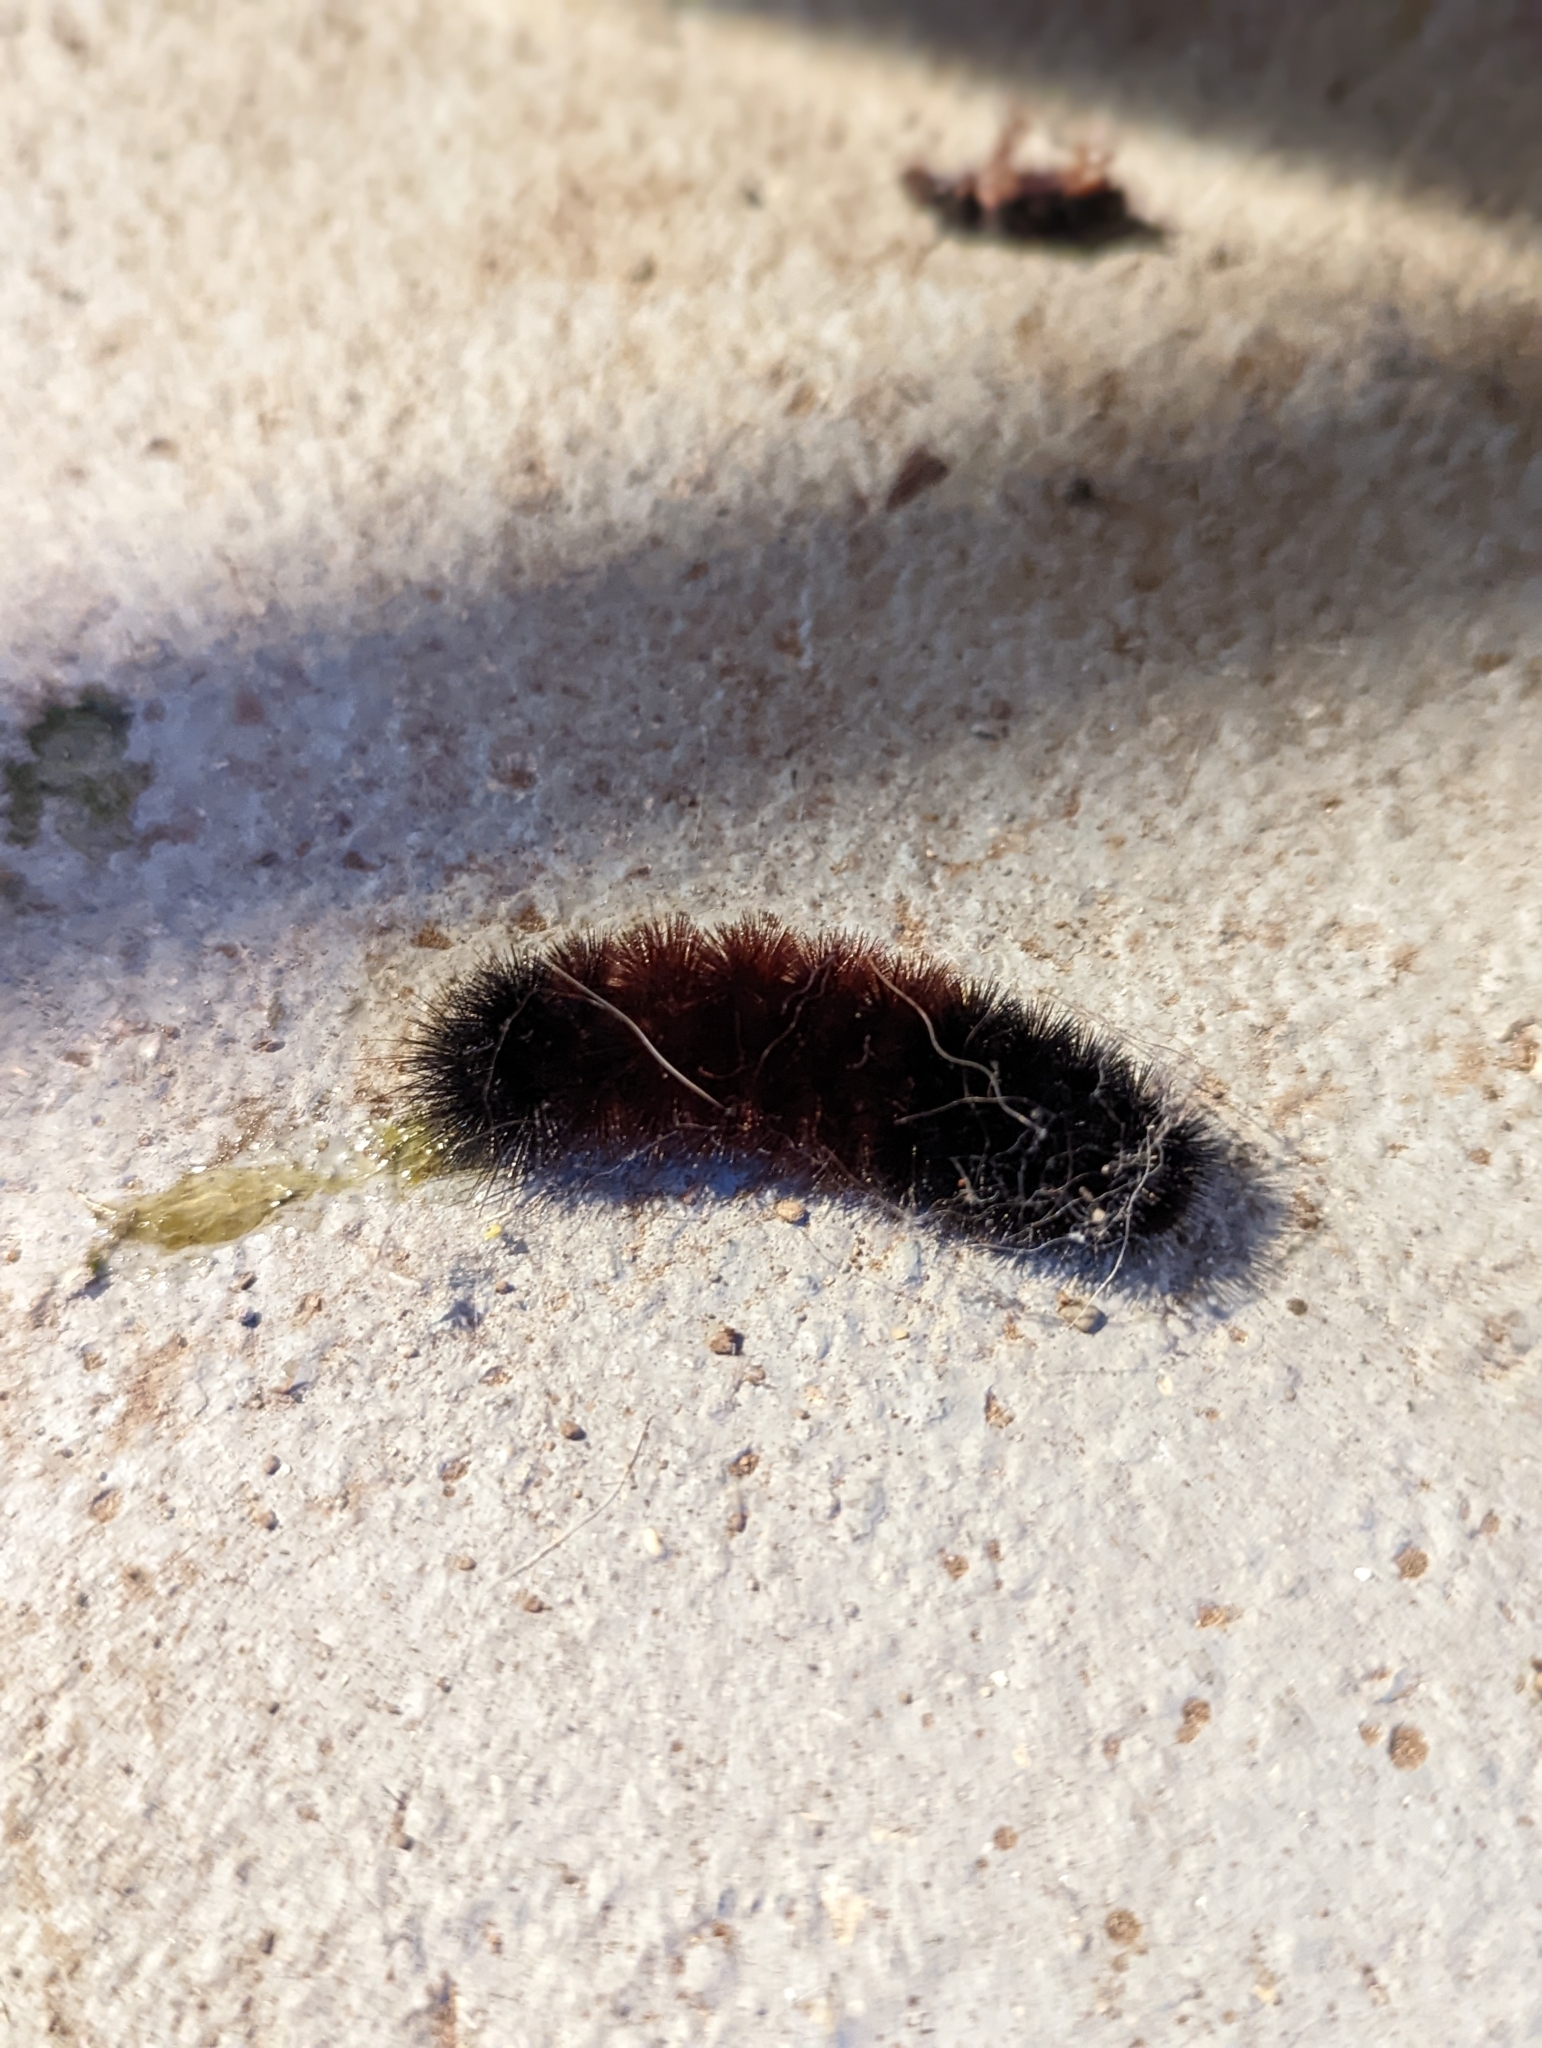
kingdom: Animalia
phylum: Arthropoda
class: Insecta
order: Lepidoptera
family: Erebidae
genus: Pyrrharctia
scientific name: Pyrrharctia isabella
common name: Isabella tiger moth
